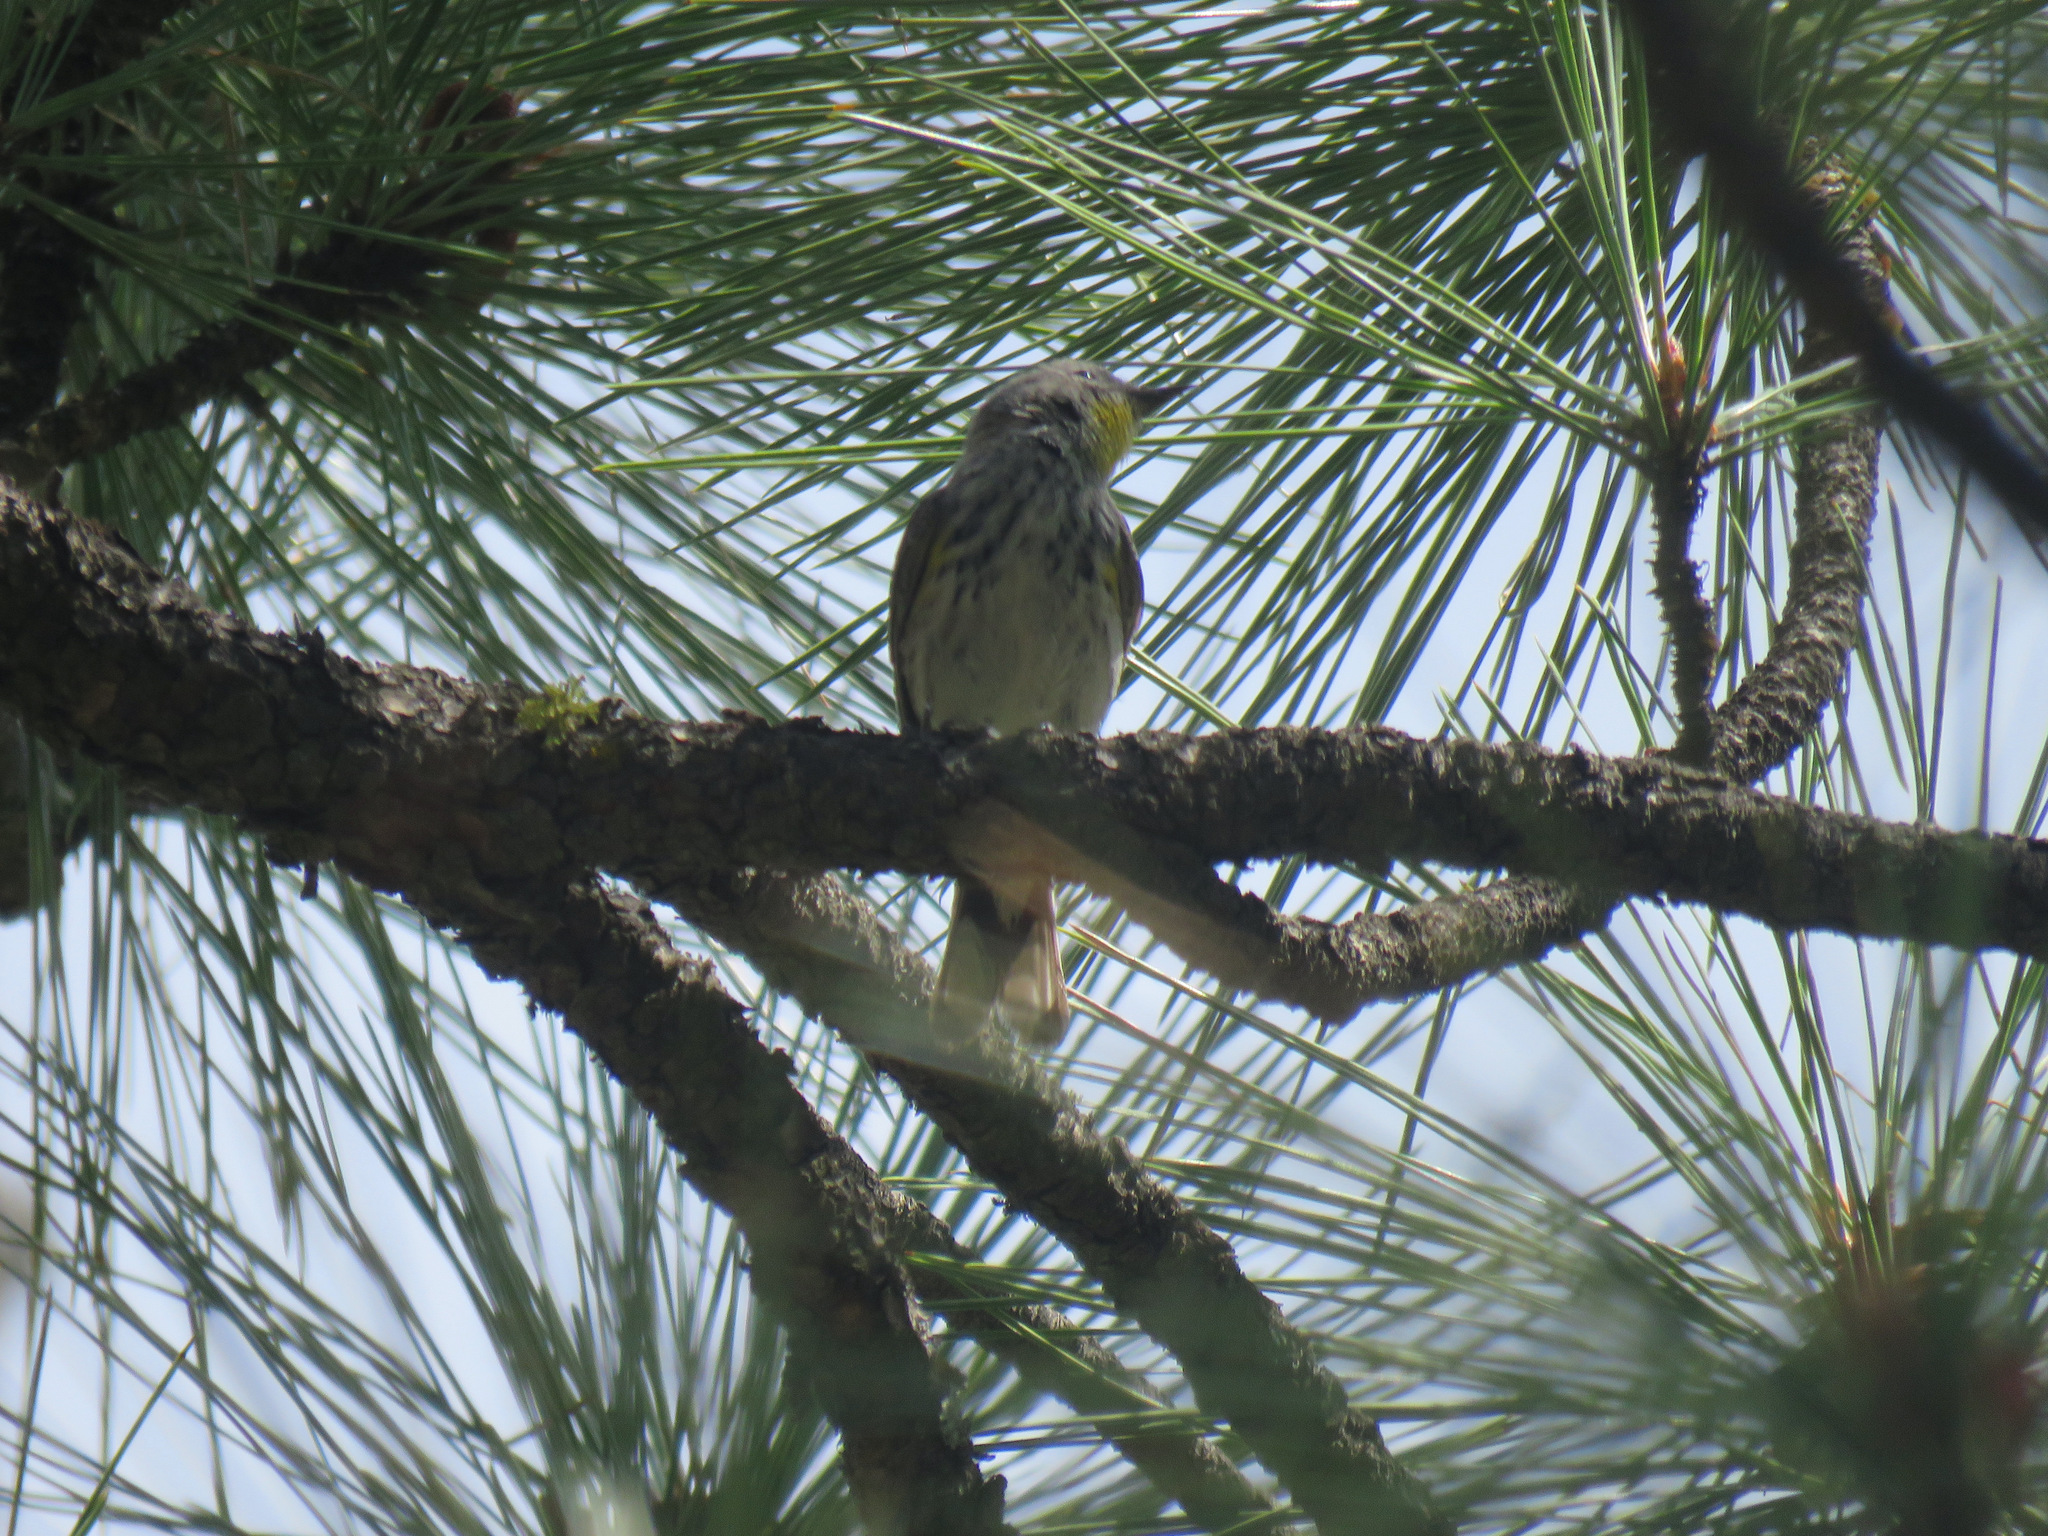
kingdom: Animalia
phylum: Chordata
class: Aves
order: Passeriformes
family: Parulidae
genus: Setophaga
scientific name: Setophaga coronata
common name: Myrtle warbler
